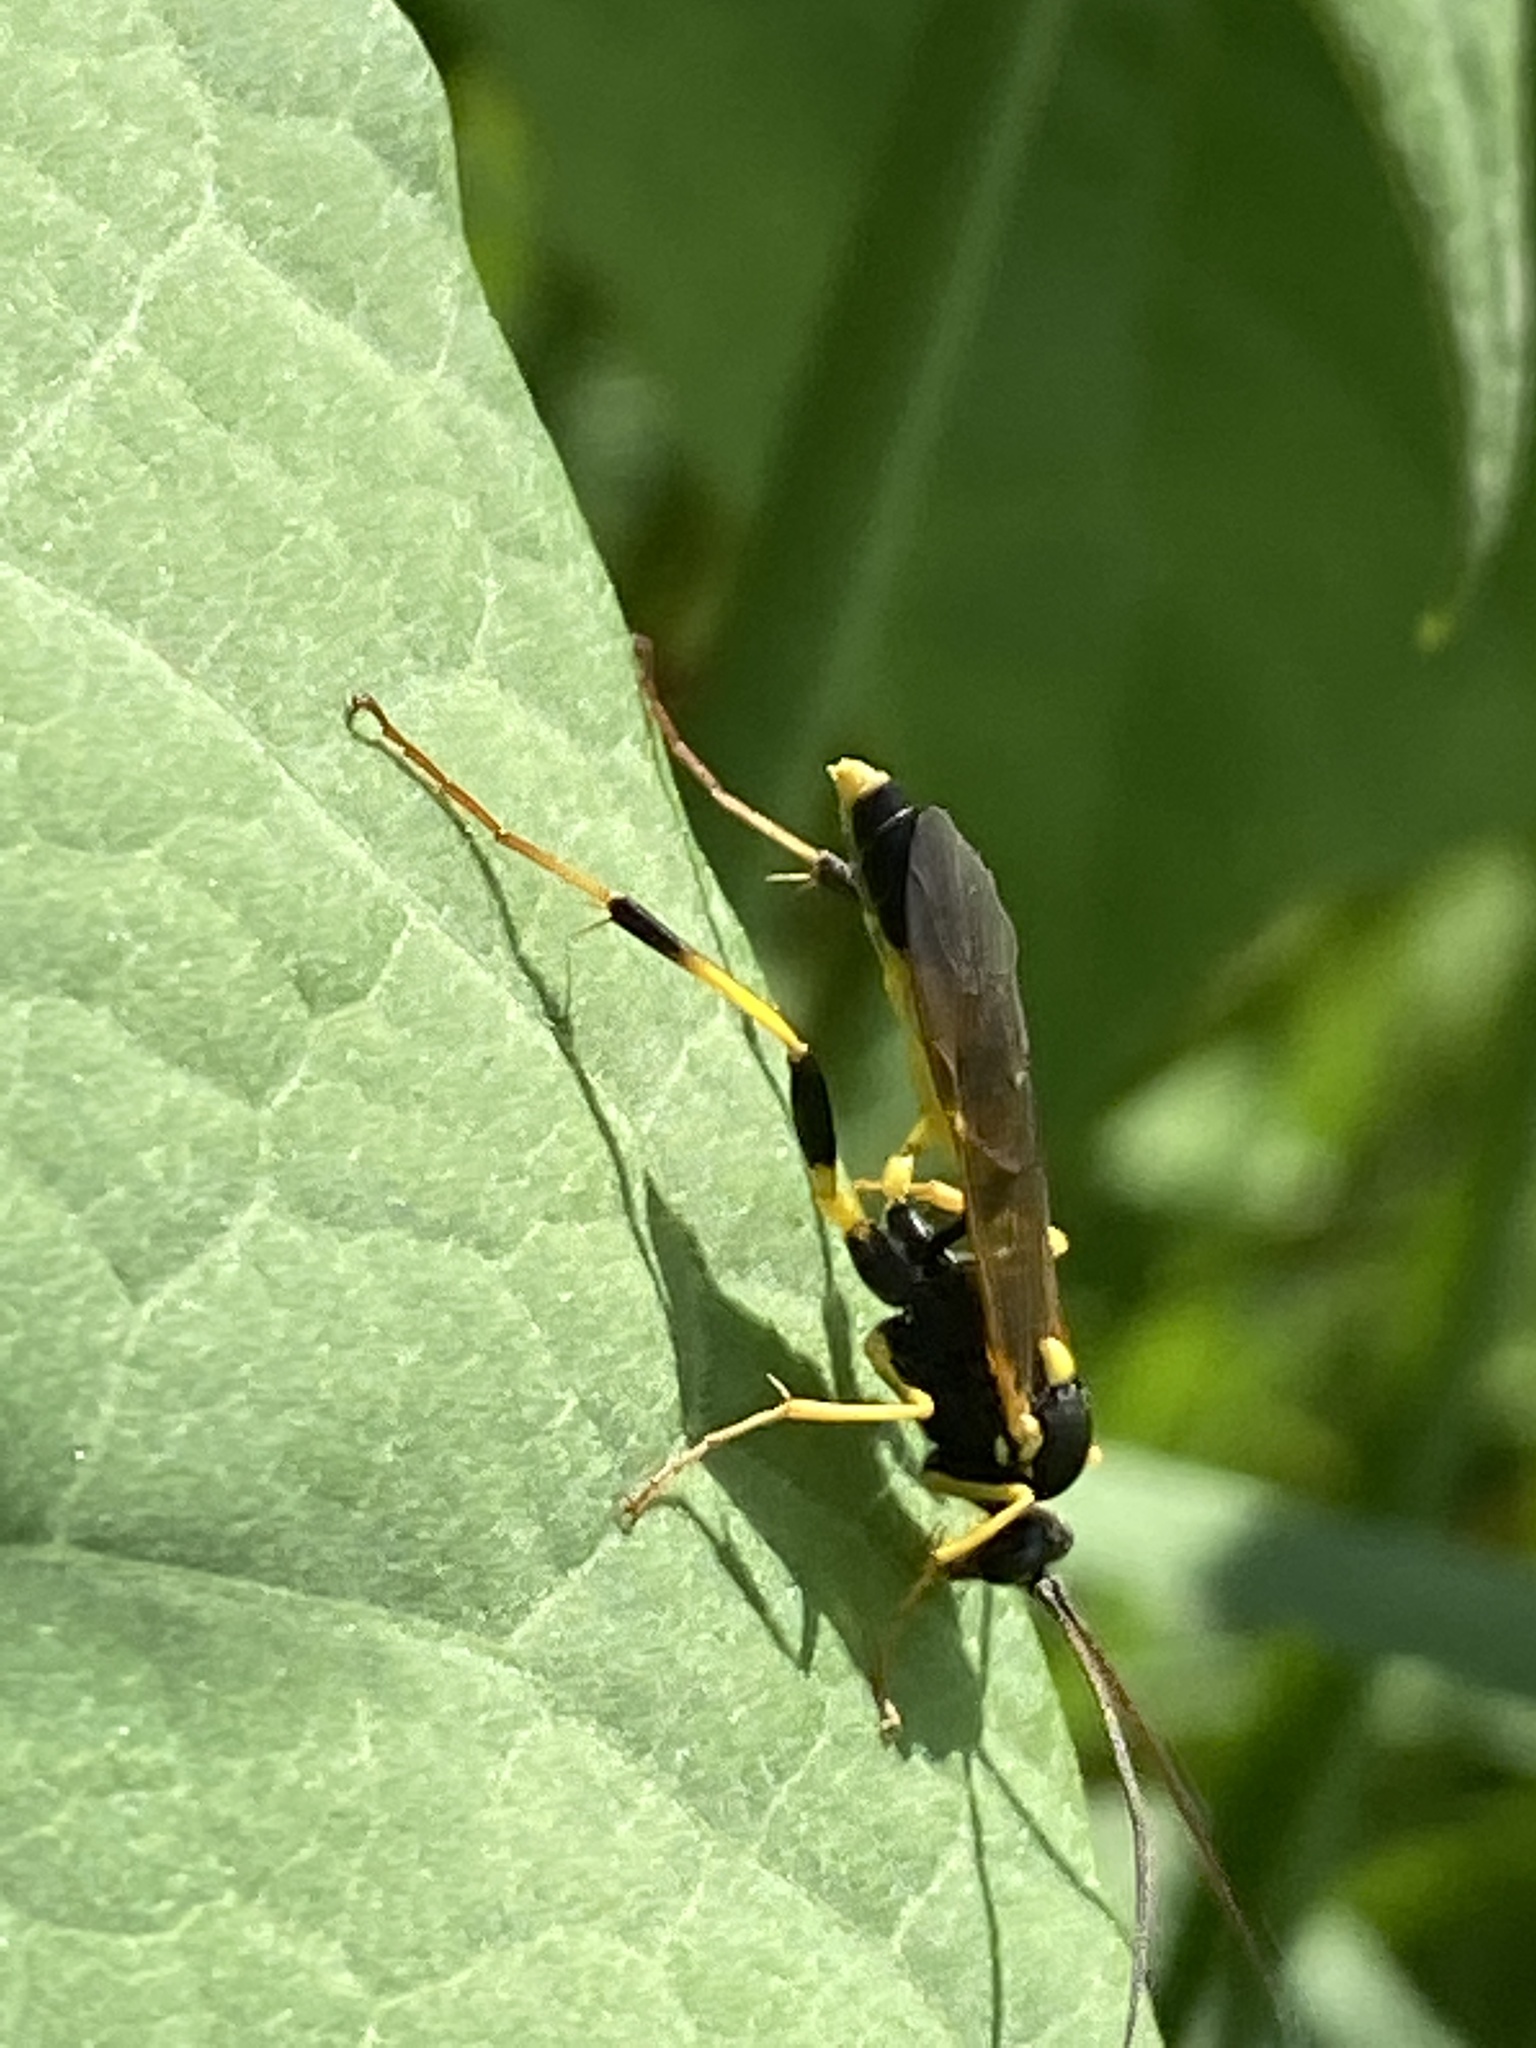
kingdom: Animalia
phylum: Arthropoda
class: Insecta
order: Hymenoptera
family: Ichneumonidae
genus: Amblyteles
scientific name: Amblyteles armatorius
